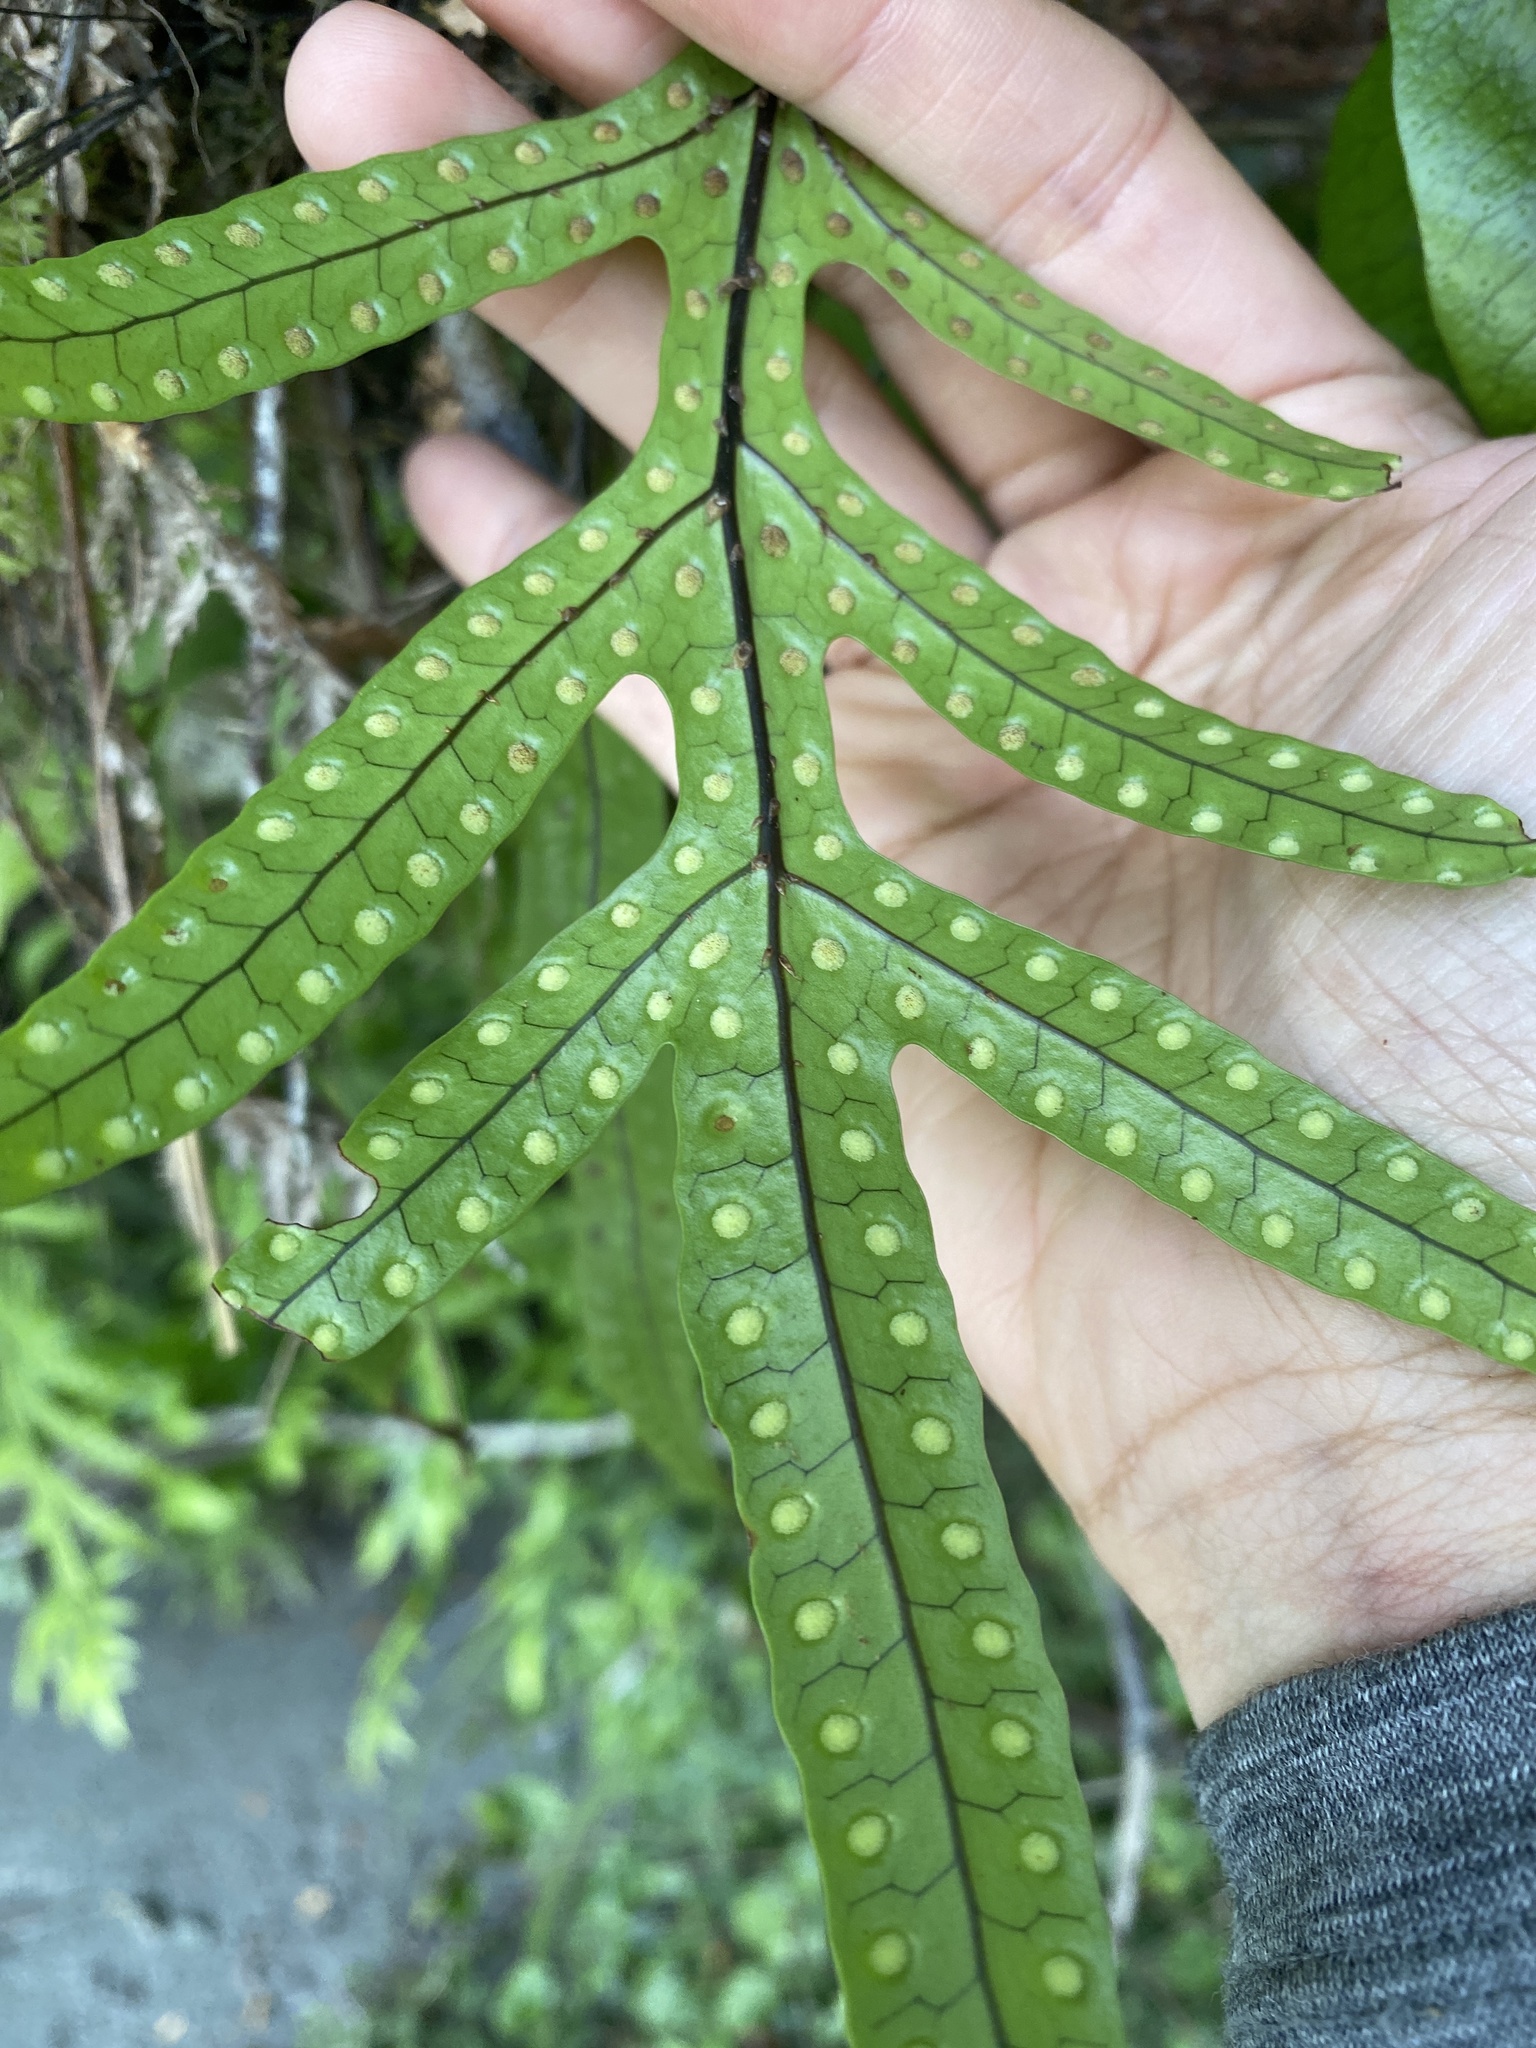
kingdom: Plantae
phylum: Tracheophyta
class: Polypodiopsida
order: Polypodiales
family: Polypodiaceae
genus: Lecanopteris
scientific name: Lecanopteris pustulata
